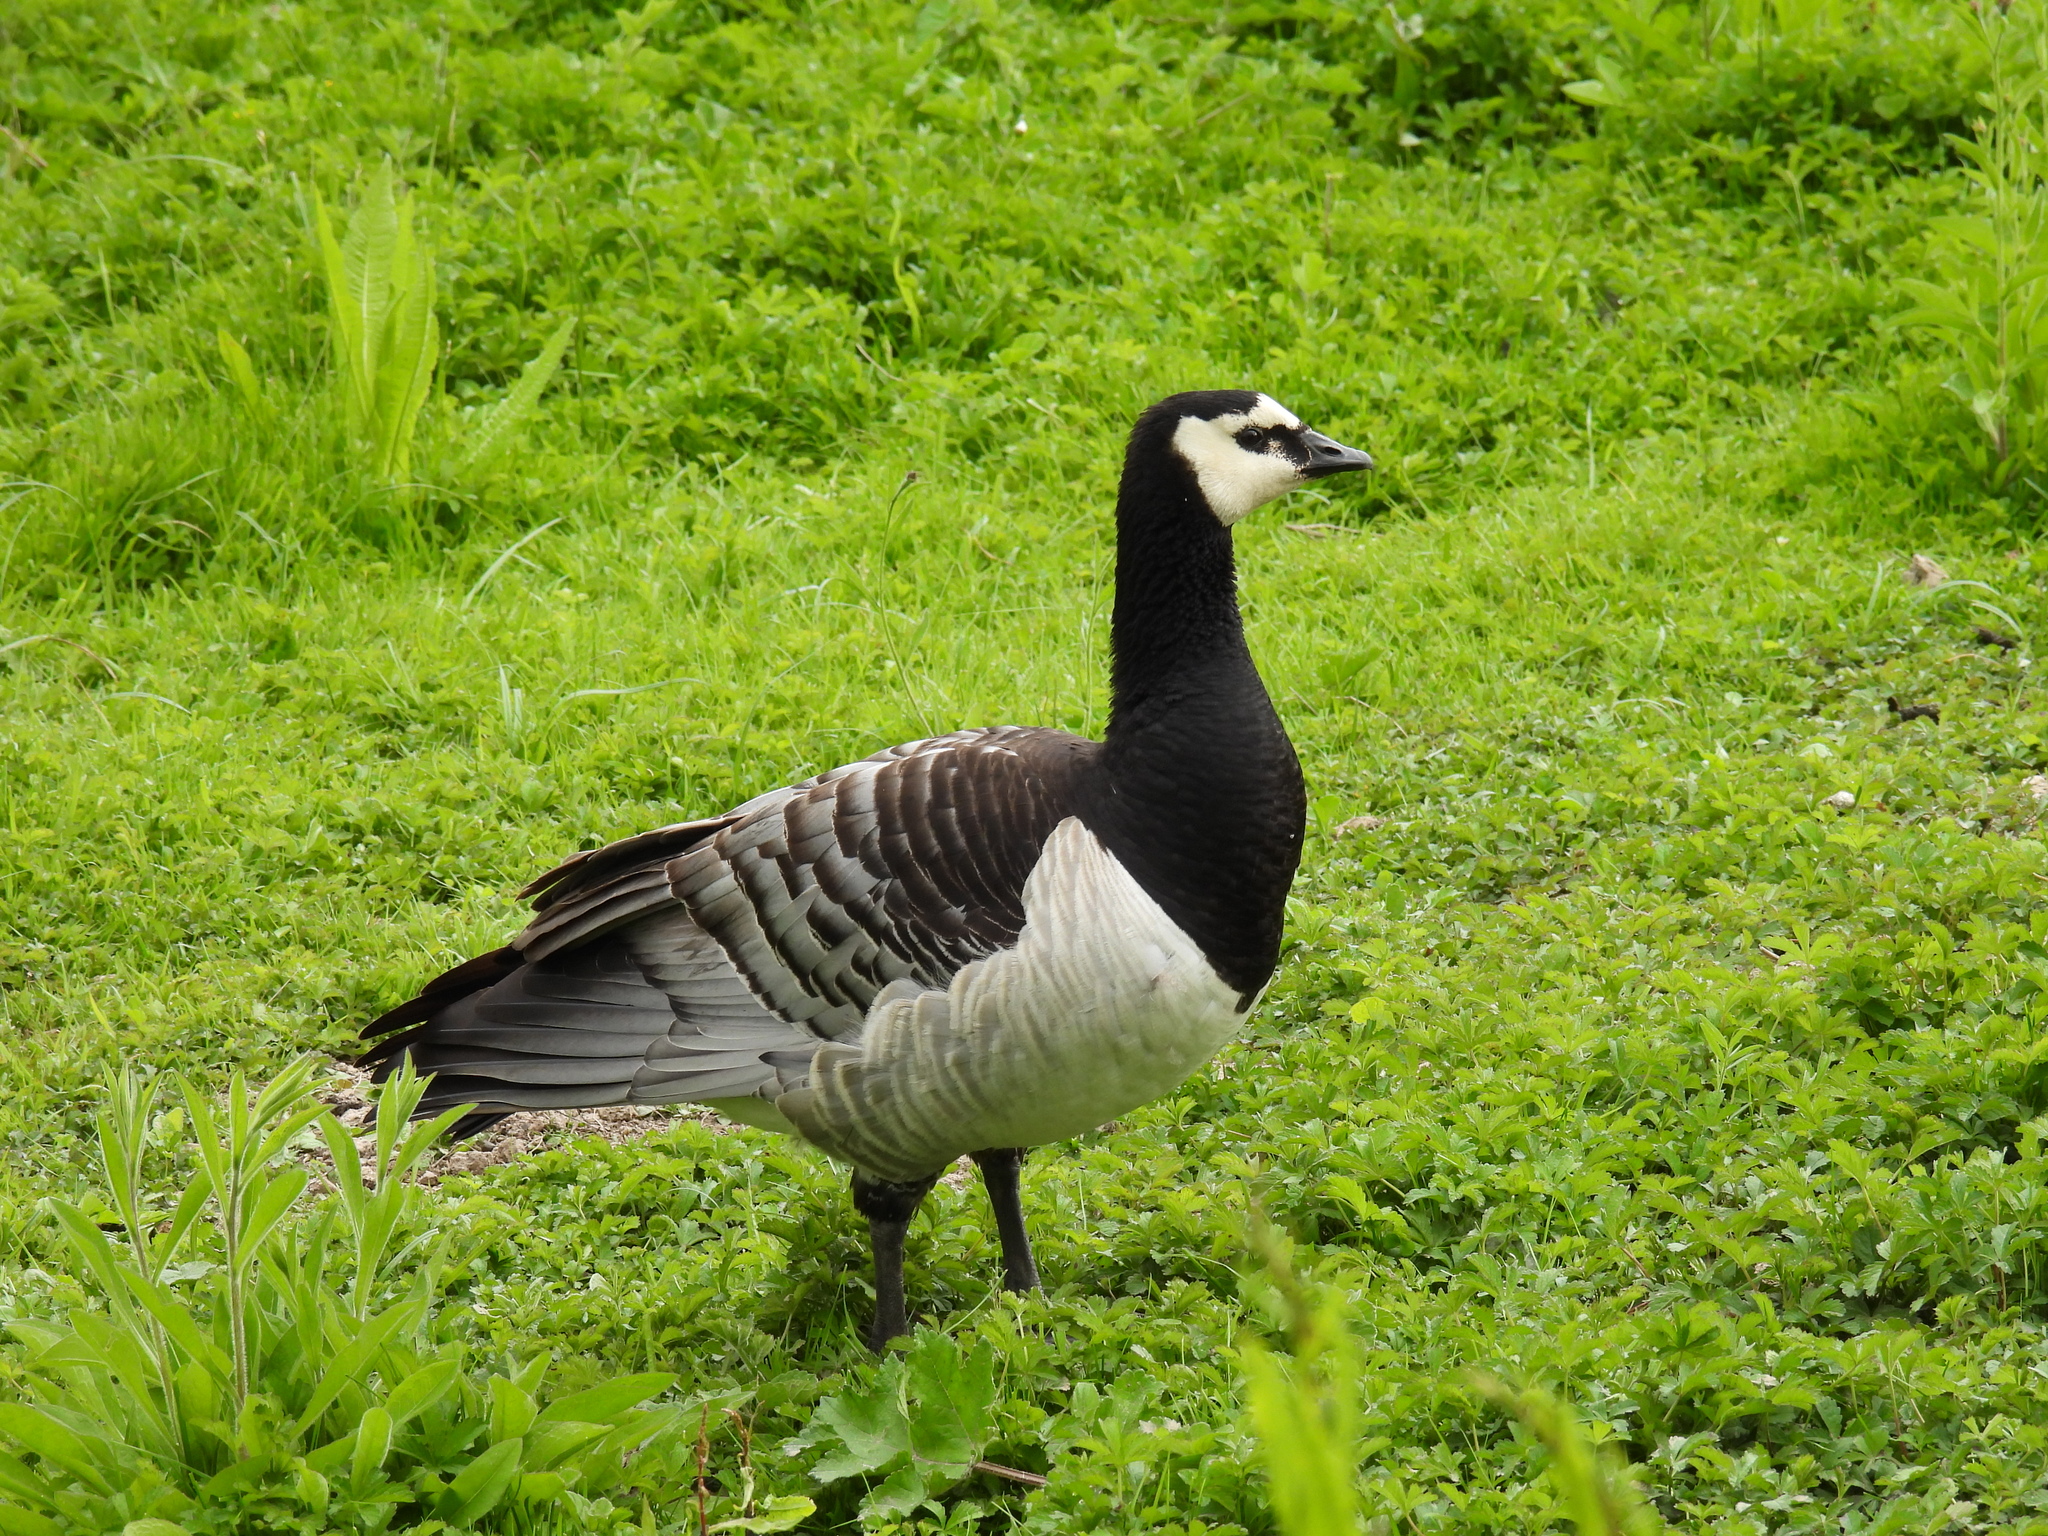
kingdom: Animalia
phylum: Chordata
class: Aves
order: Anseriformes
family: Anatidae
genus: Branta
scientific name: Branta leucopsis
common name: Barnacle goose
